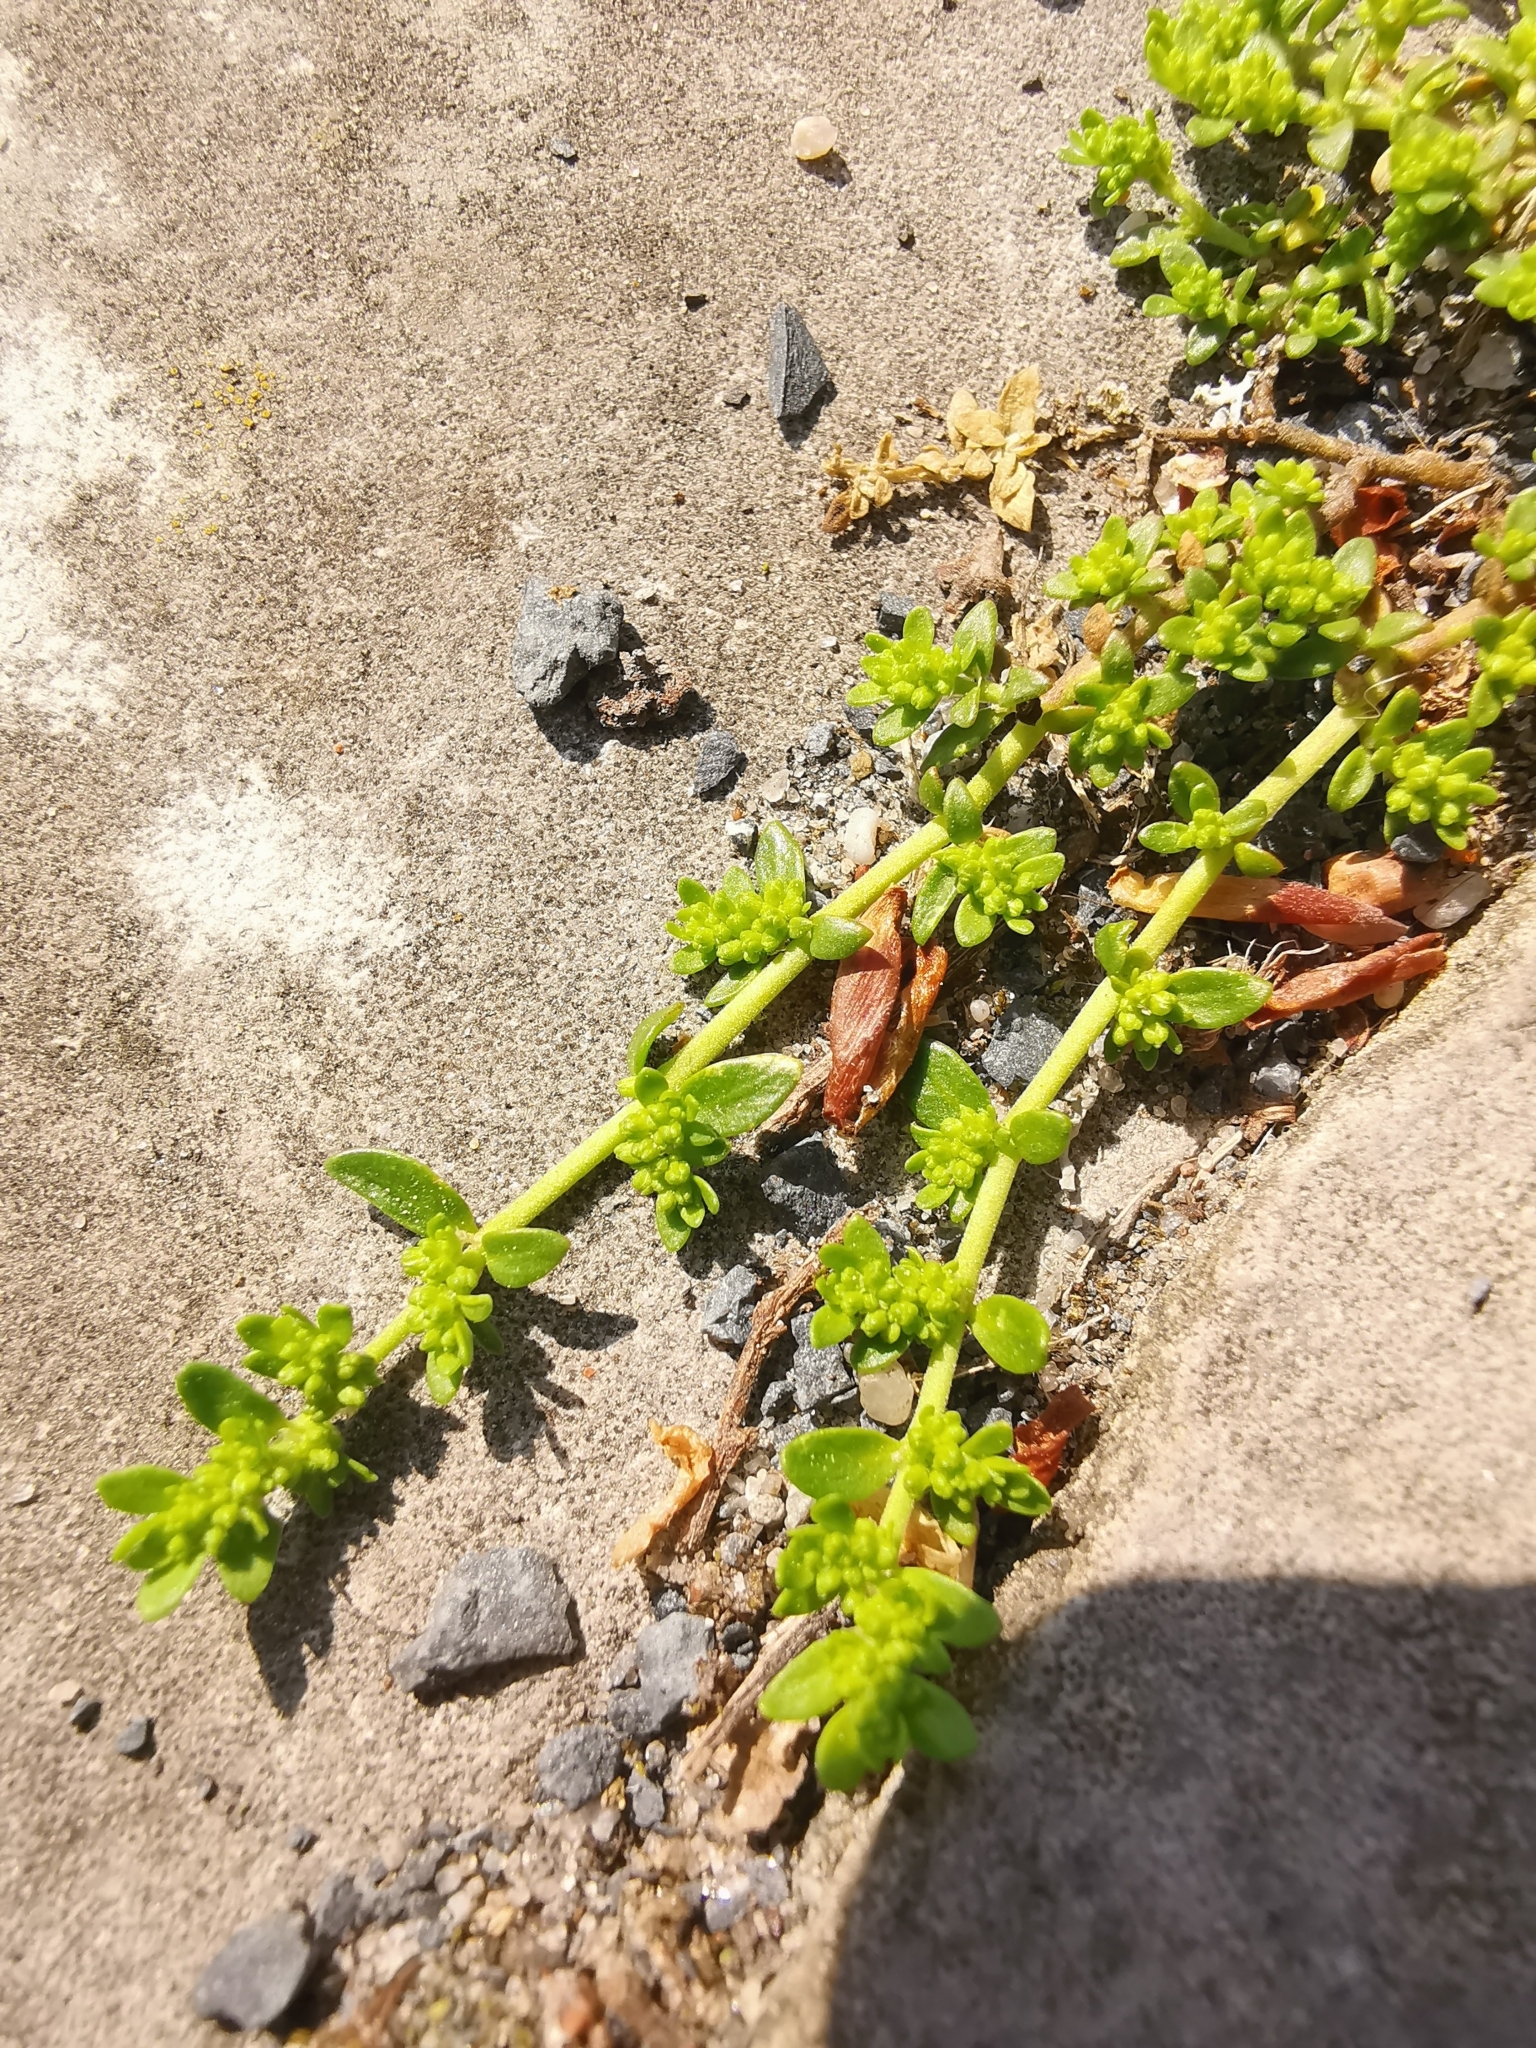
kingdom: Plantae
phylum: Tracheophyta
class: Magnoliopsida
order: Caryophyllales
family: Caryophyllaceae
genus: Herniaria
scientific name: Herniaria glabra
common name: Smooth rupturewort
